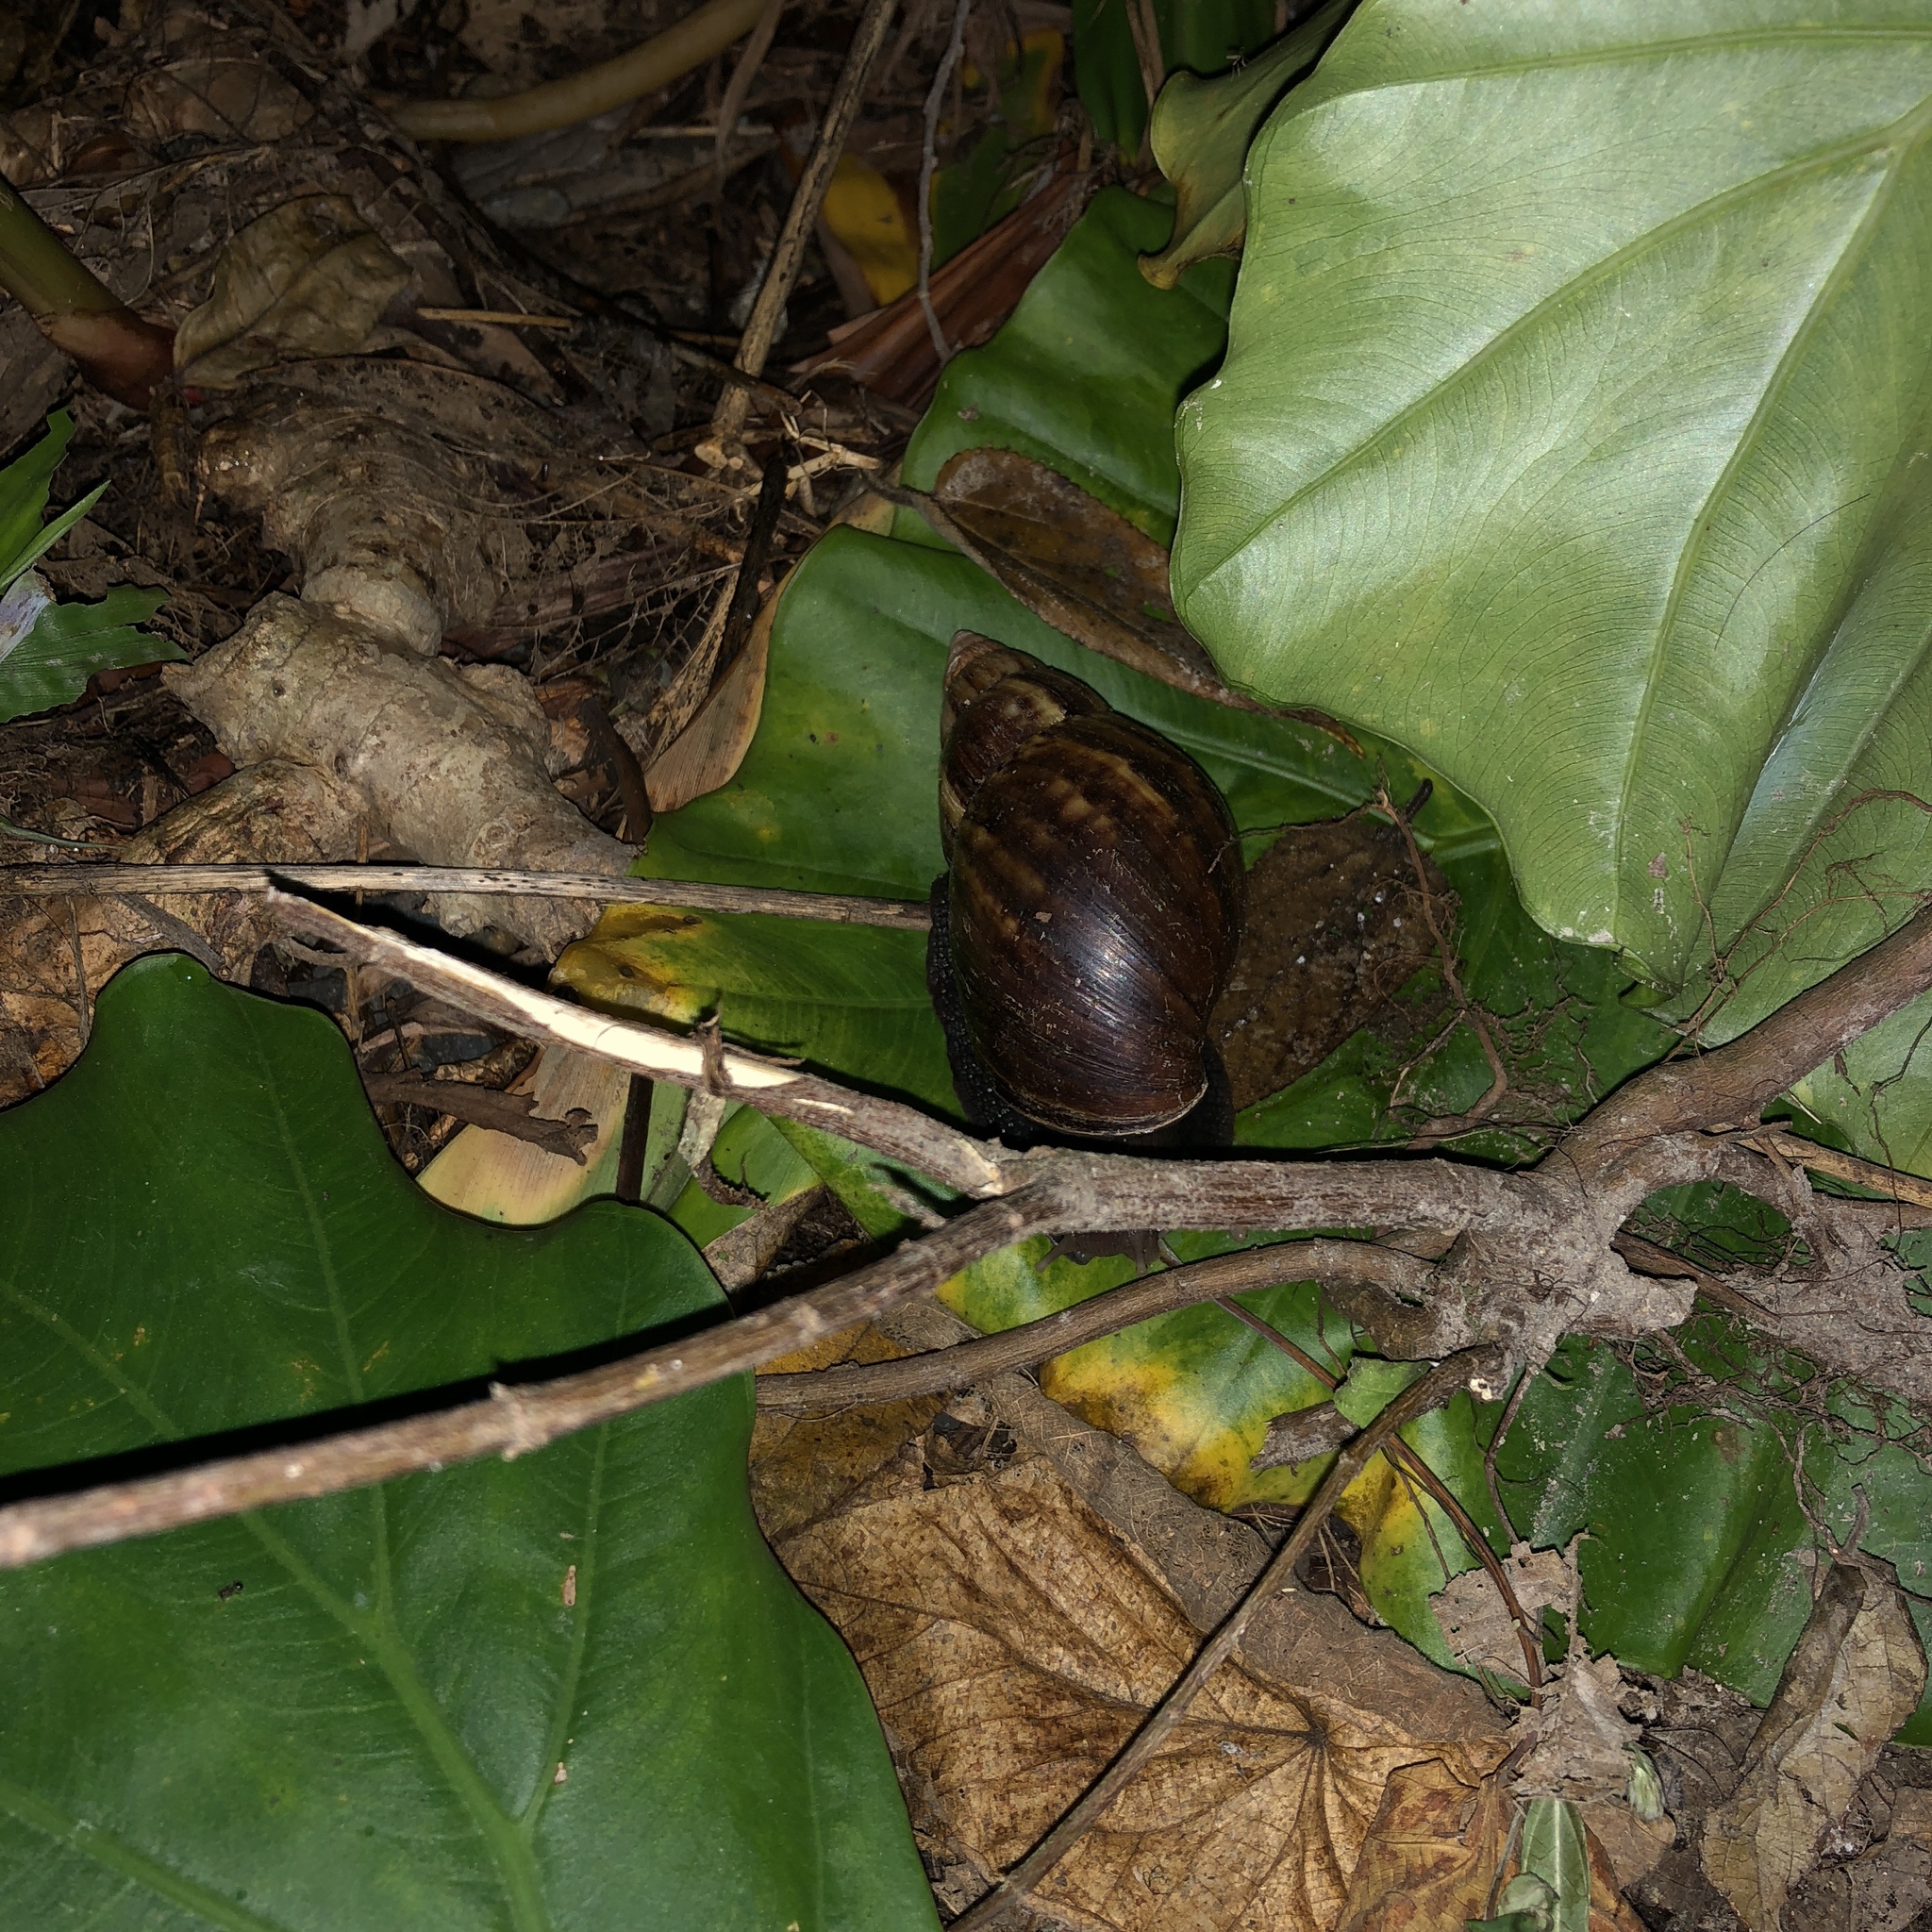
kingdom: Animalia
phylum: Mollusca
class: Gastropoda
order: Stylommatophora
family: Achatinidae
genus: Lissachatina
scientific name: Lissachatina fulica
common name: Giant african snail
